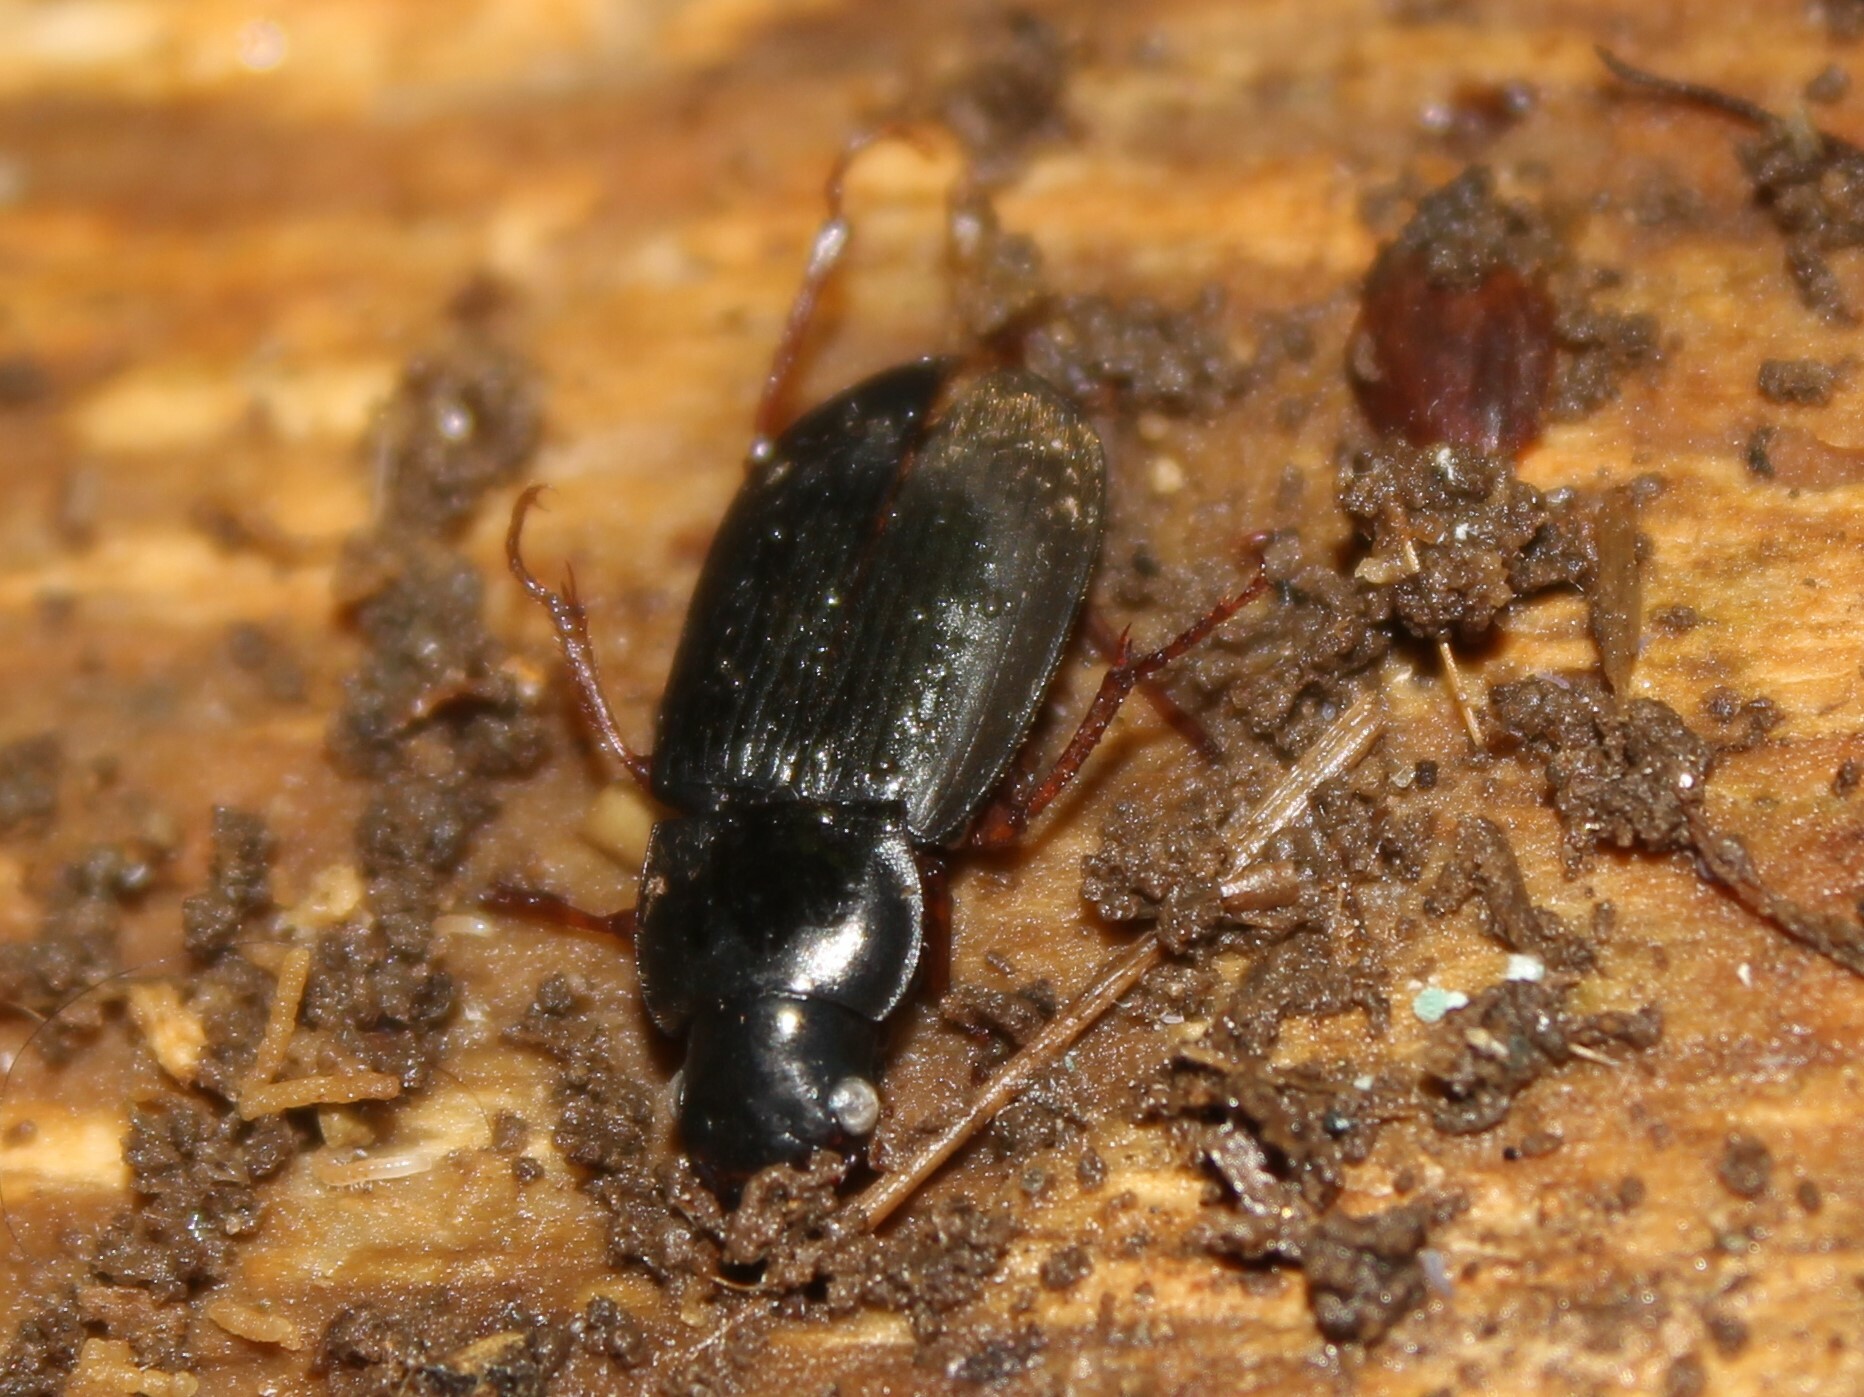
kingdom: Animalia
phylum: Arthropoda
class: Insecta
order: Coleoptera
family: Carabidae
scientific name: Carabidae
